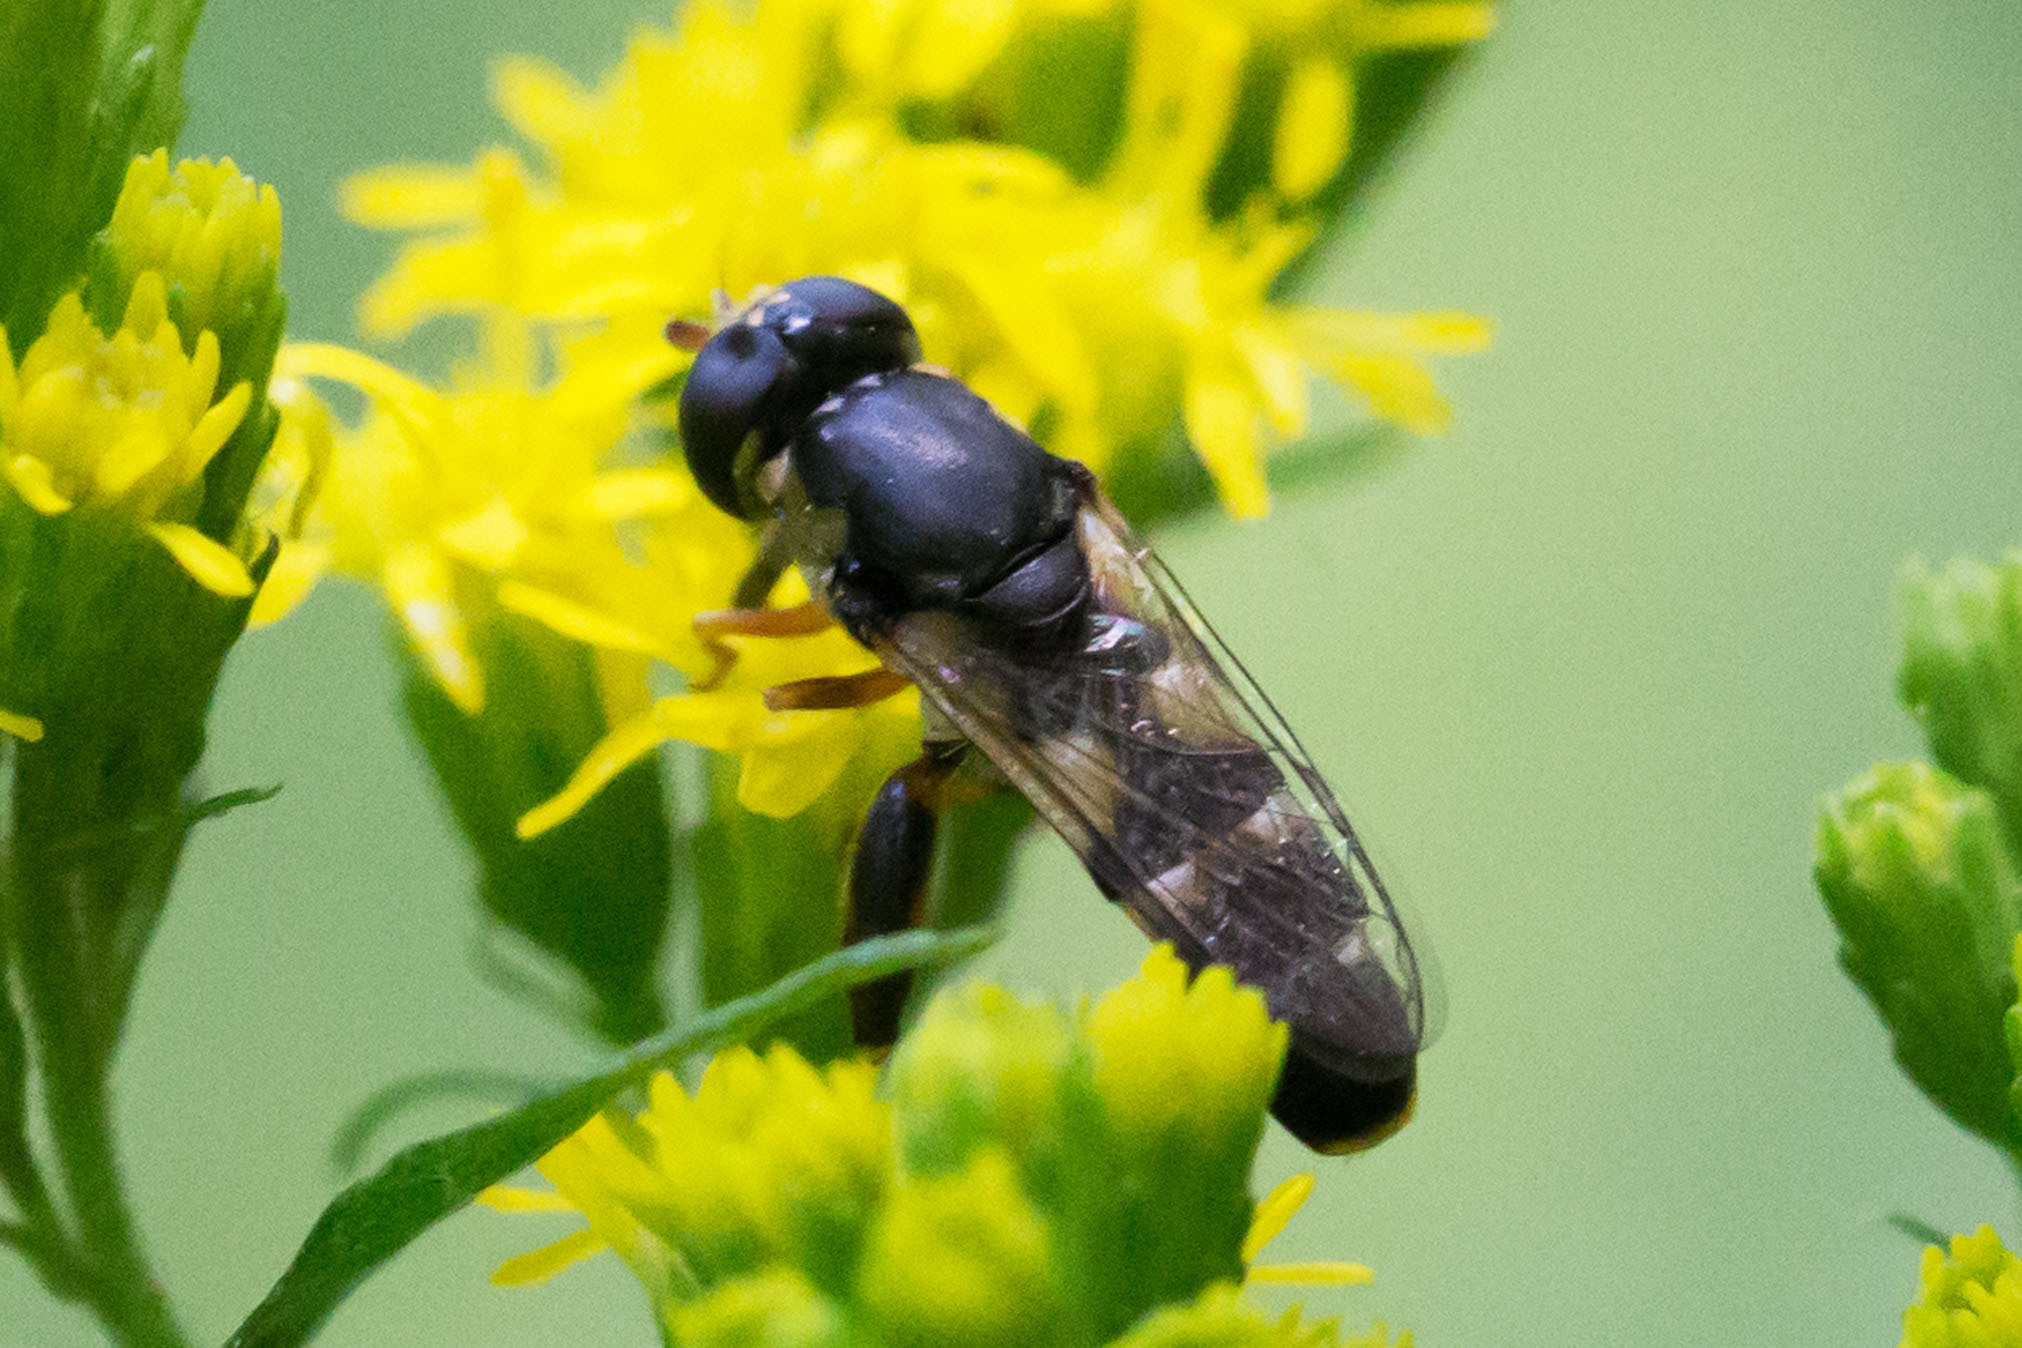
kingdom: Animalia
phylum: Arthropoda
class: Insecta
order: Diptera
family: Syrphidae
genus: Syritta
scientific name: Syritta pipiens
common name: Hover fly
